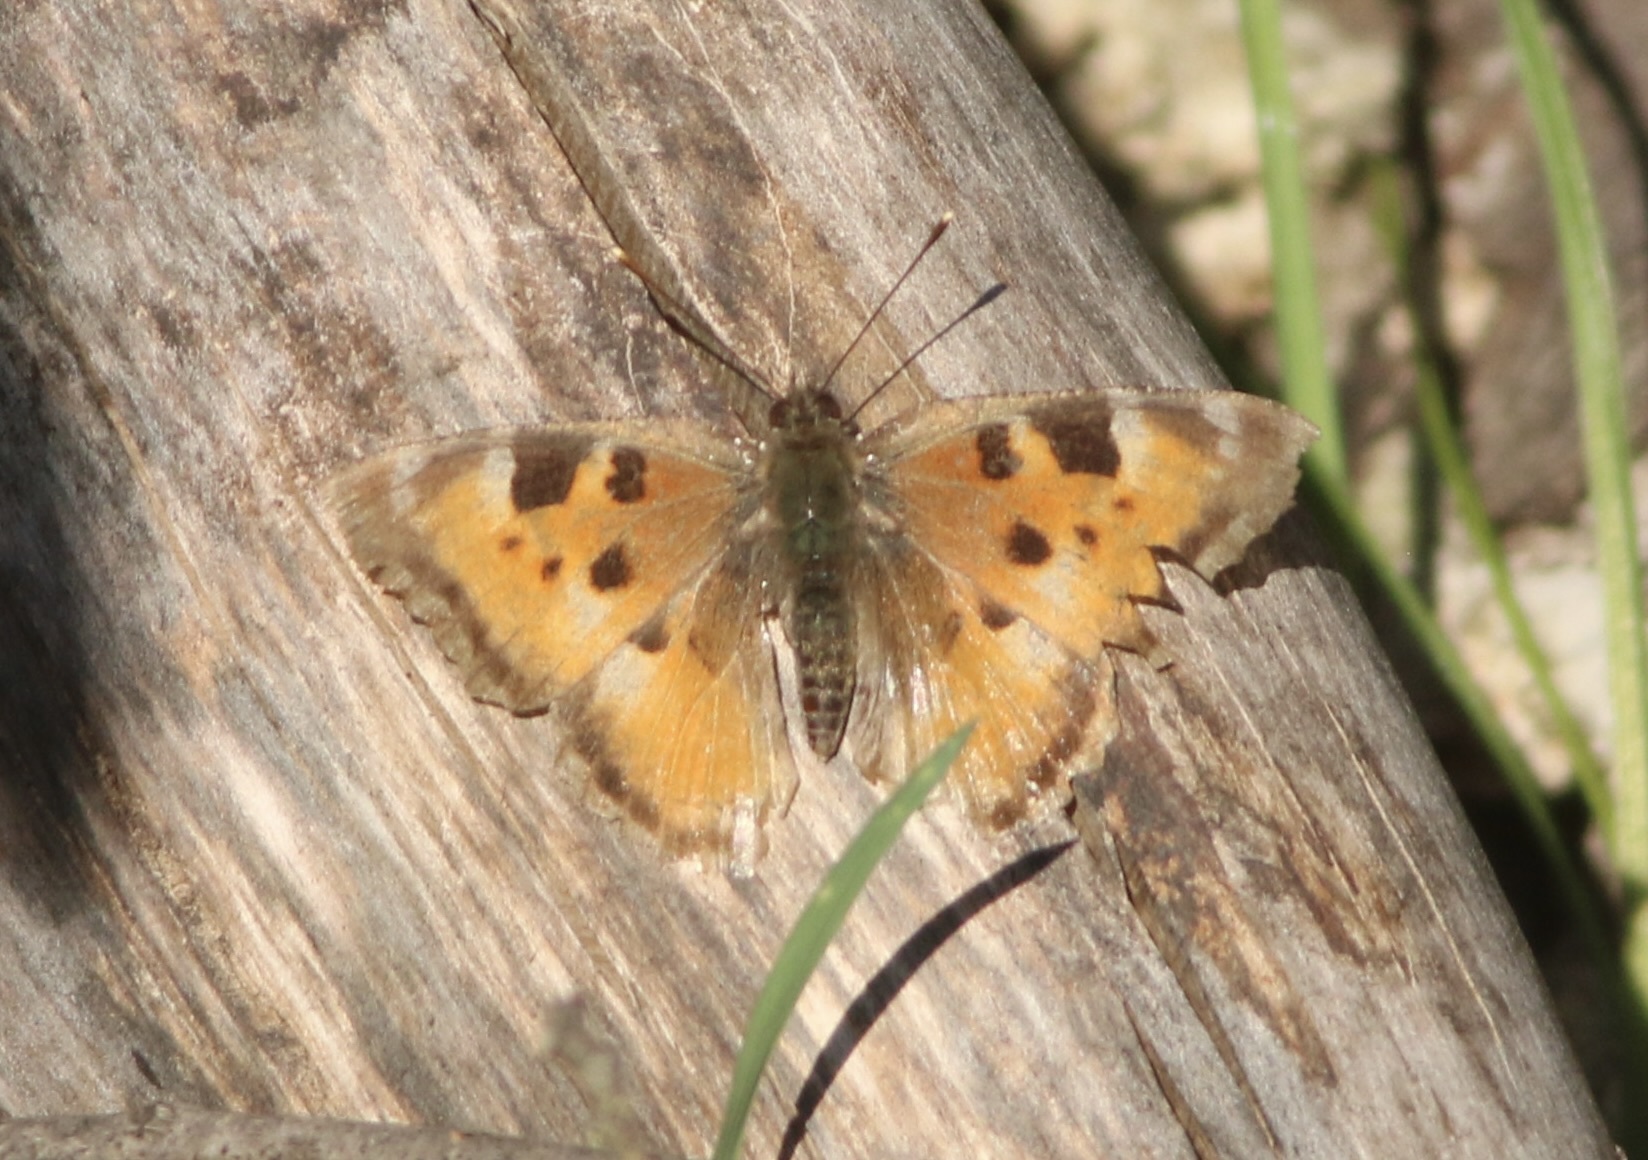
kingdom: Animalia
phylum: Arthropoda
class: Insecta
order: Lepidoptera
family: Nymphalidae
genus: Nymphalis
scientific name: Nymphalis californica
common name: California tortoiseshell
